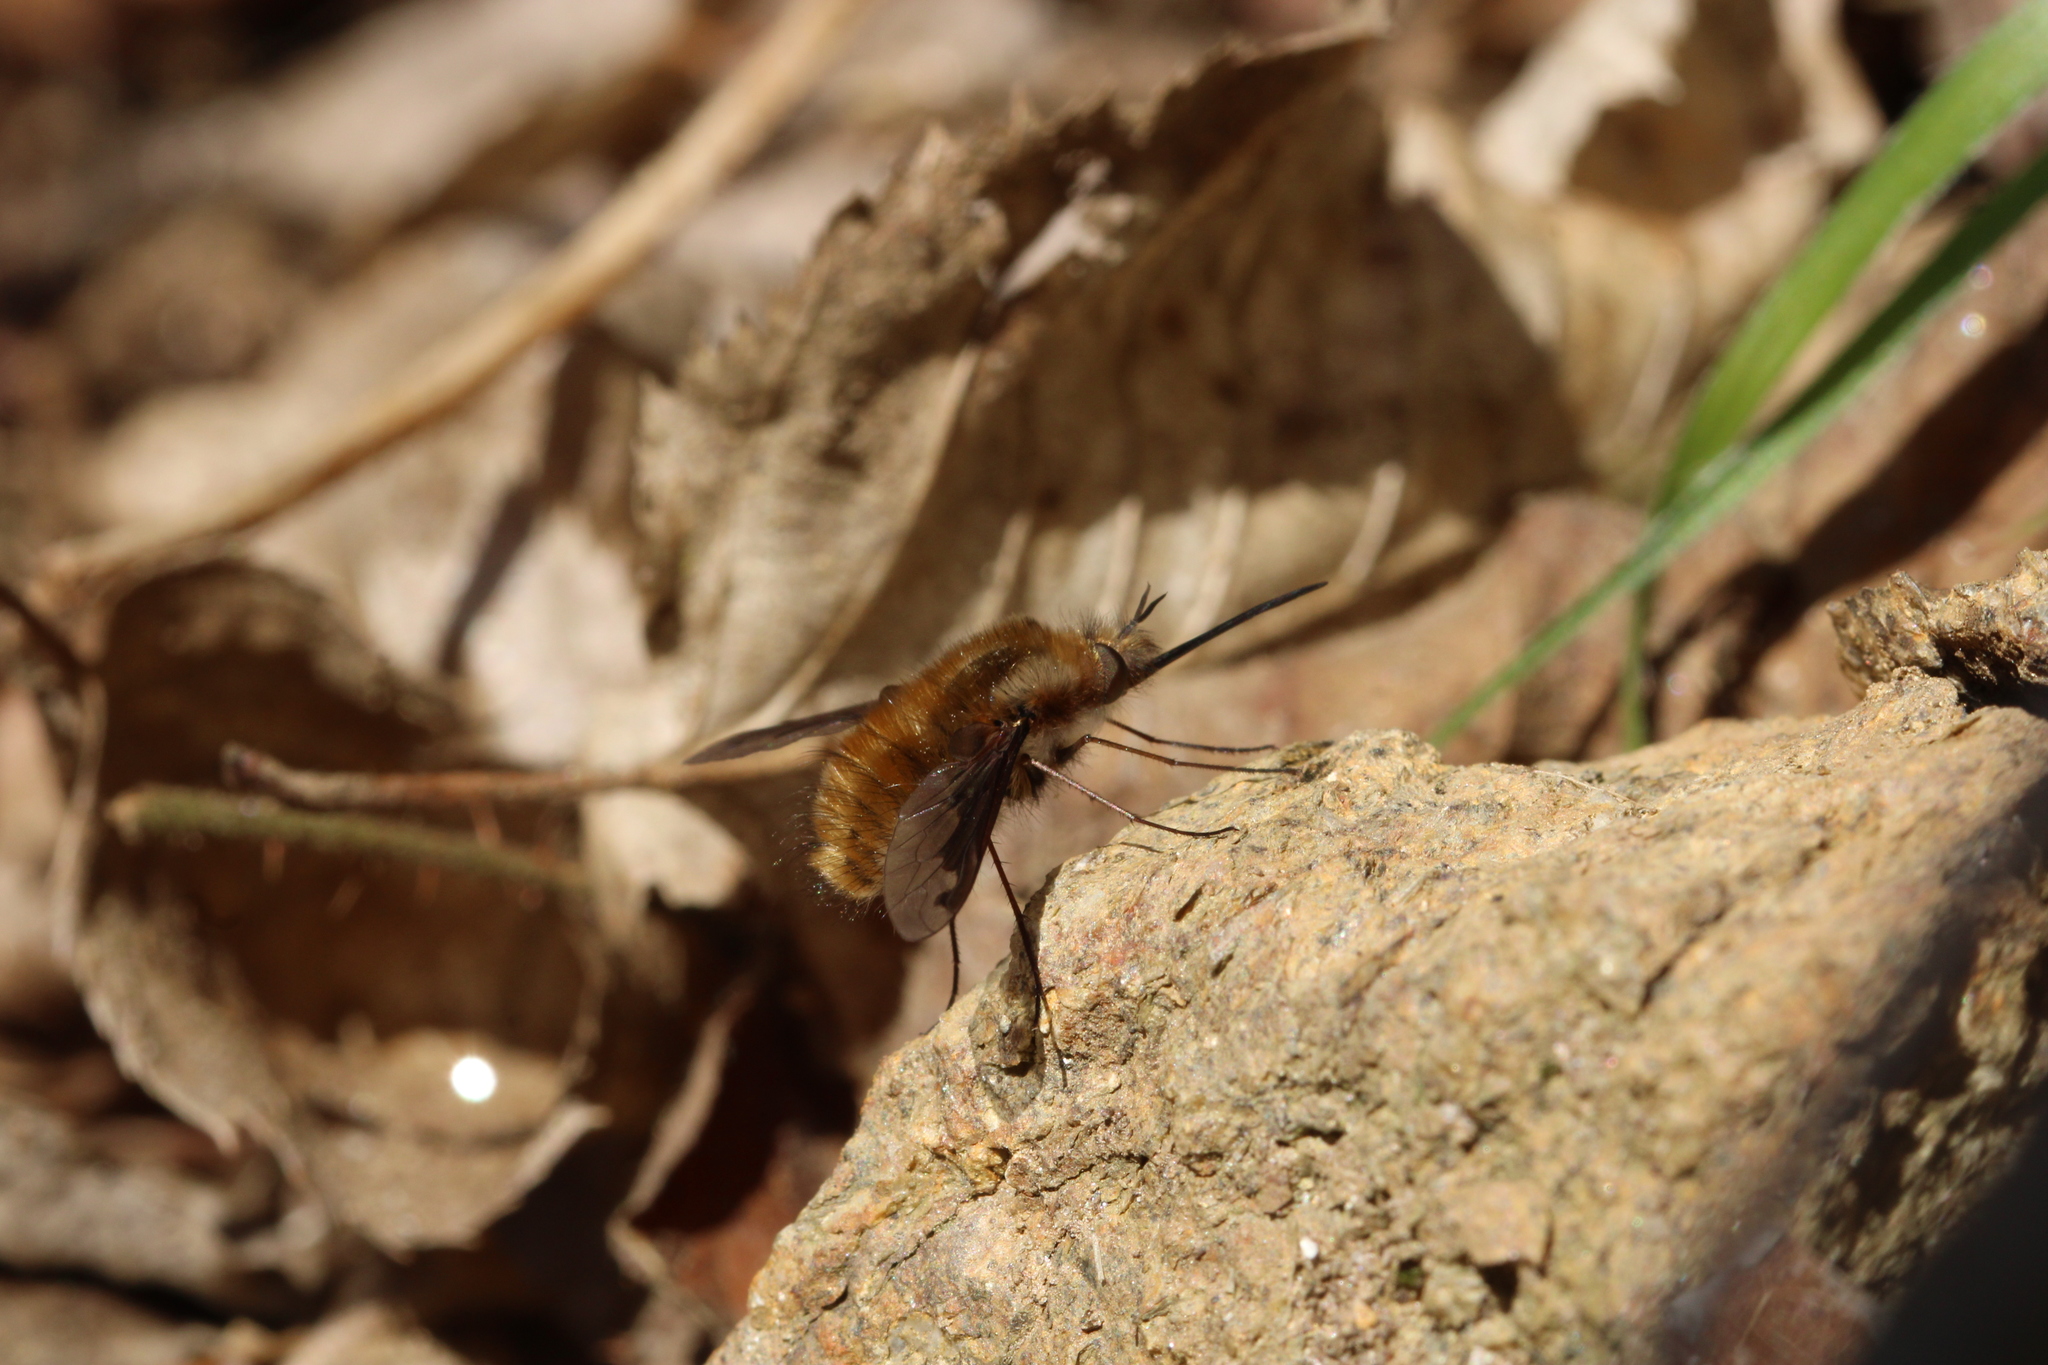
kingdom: Animalia
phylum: Arthropoda
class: Insecta
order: Diptera
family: Bombyliidae
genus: Bombylius
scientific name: Bombylius major
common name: Bee fly
